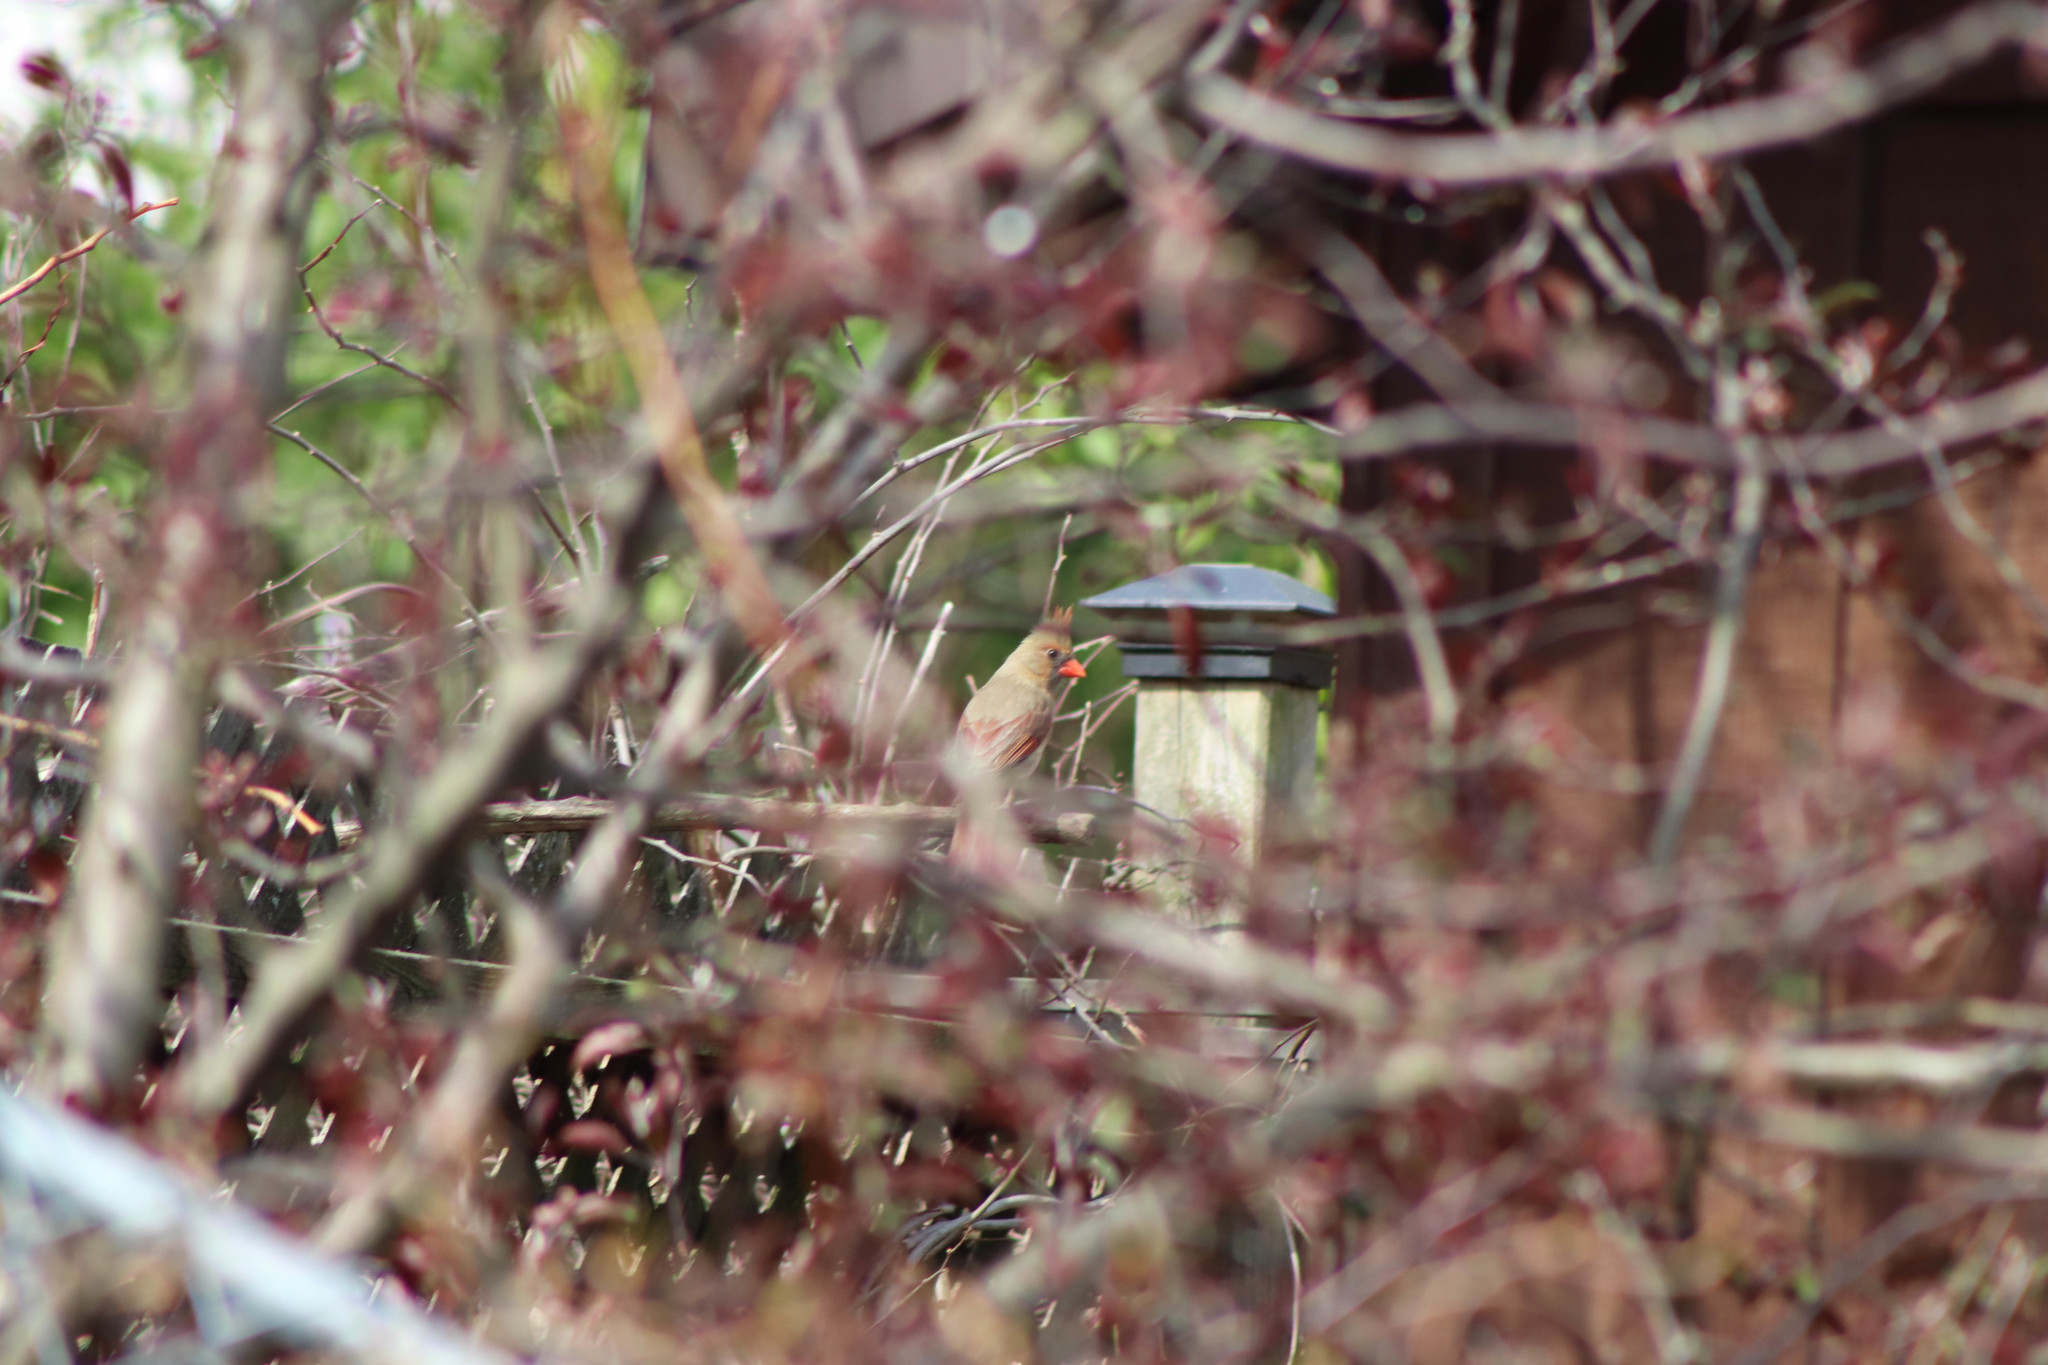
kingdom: Animalia
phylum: Chordata
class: Aves
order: Passeriformes
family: Cardinalidae
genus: Cardinalis
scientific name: Cardinalis cardinalis
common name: Northern cardinal
